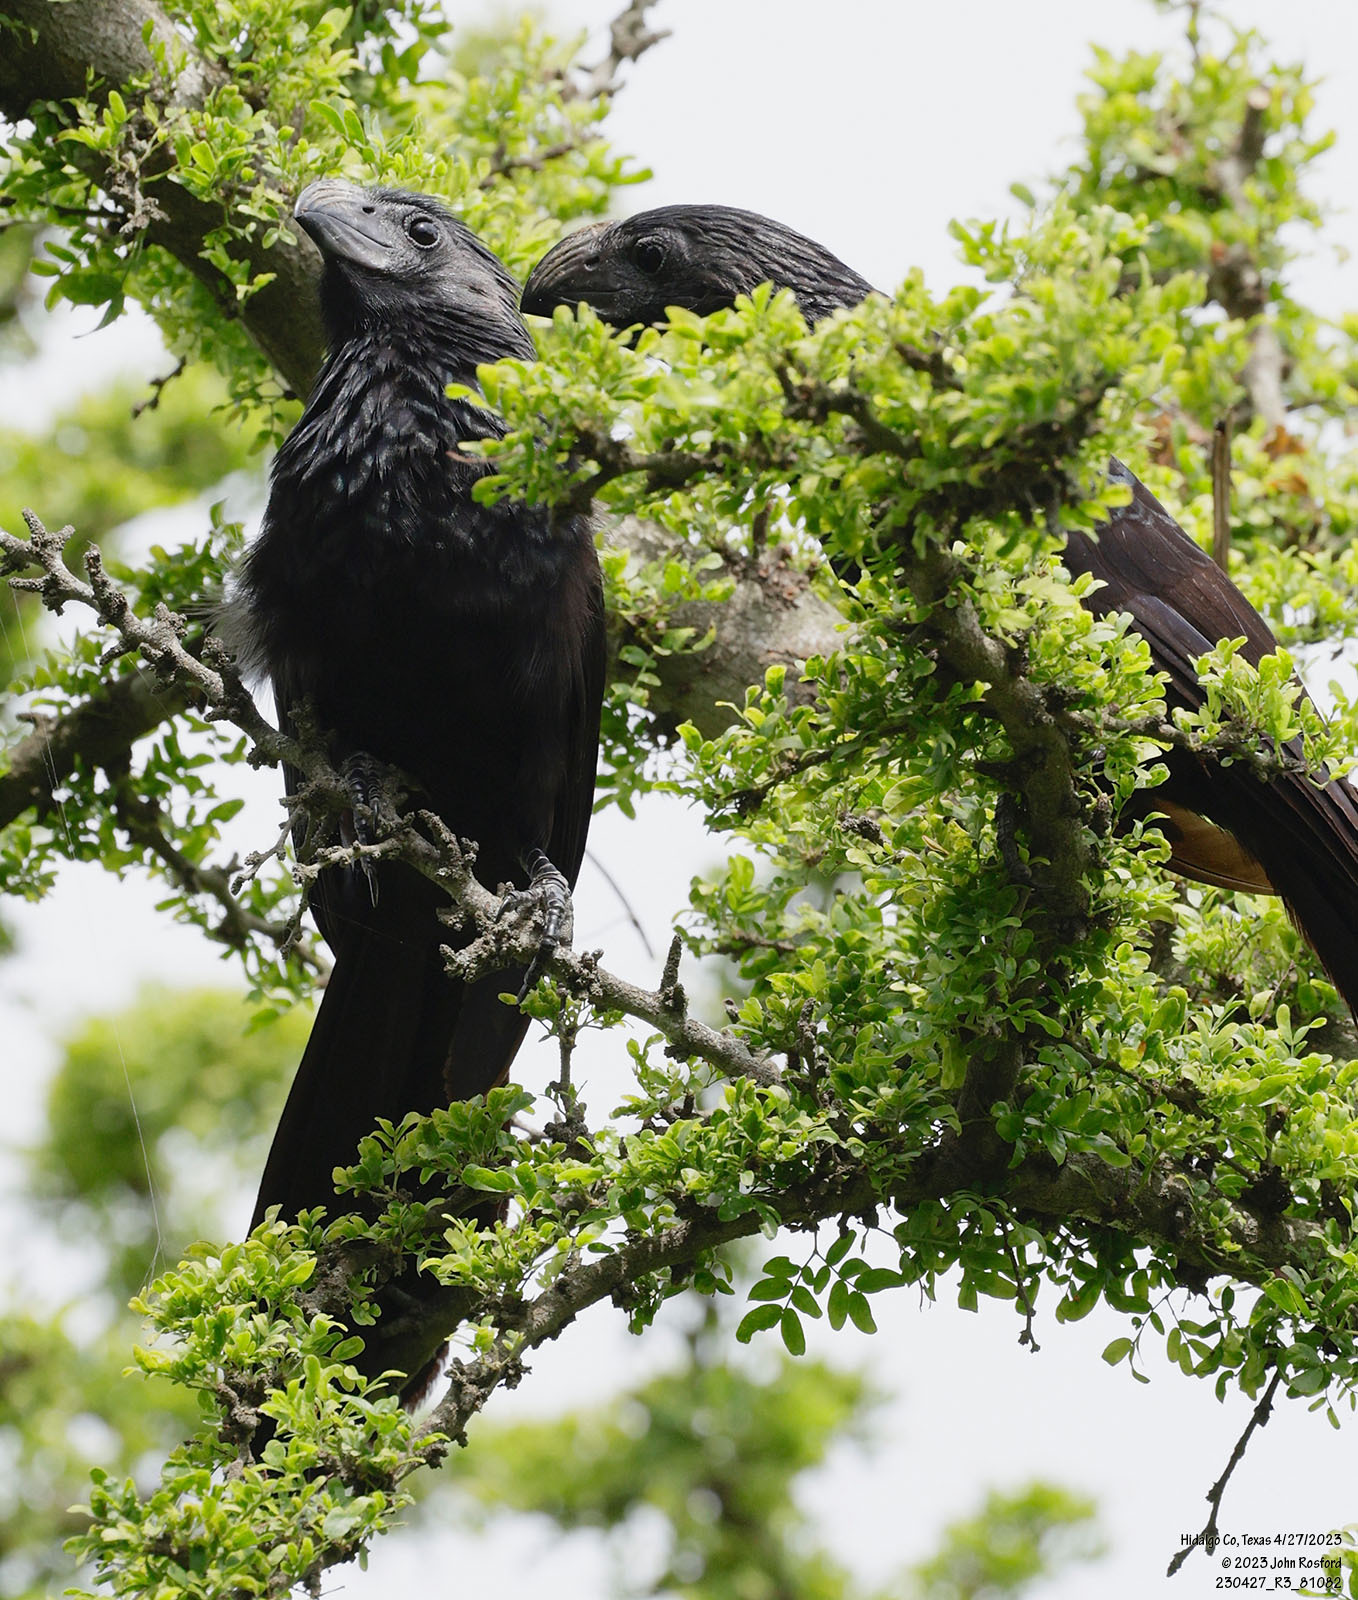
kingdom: Animalia
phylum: Chordata
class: Aves
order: Cuculiformes
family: Cuculidae
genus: Crotophaga
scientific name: Crotophaga sulcirostris
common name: Groove-billed ani
